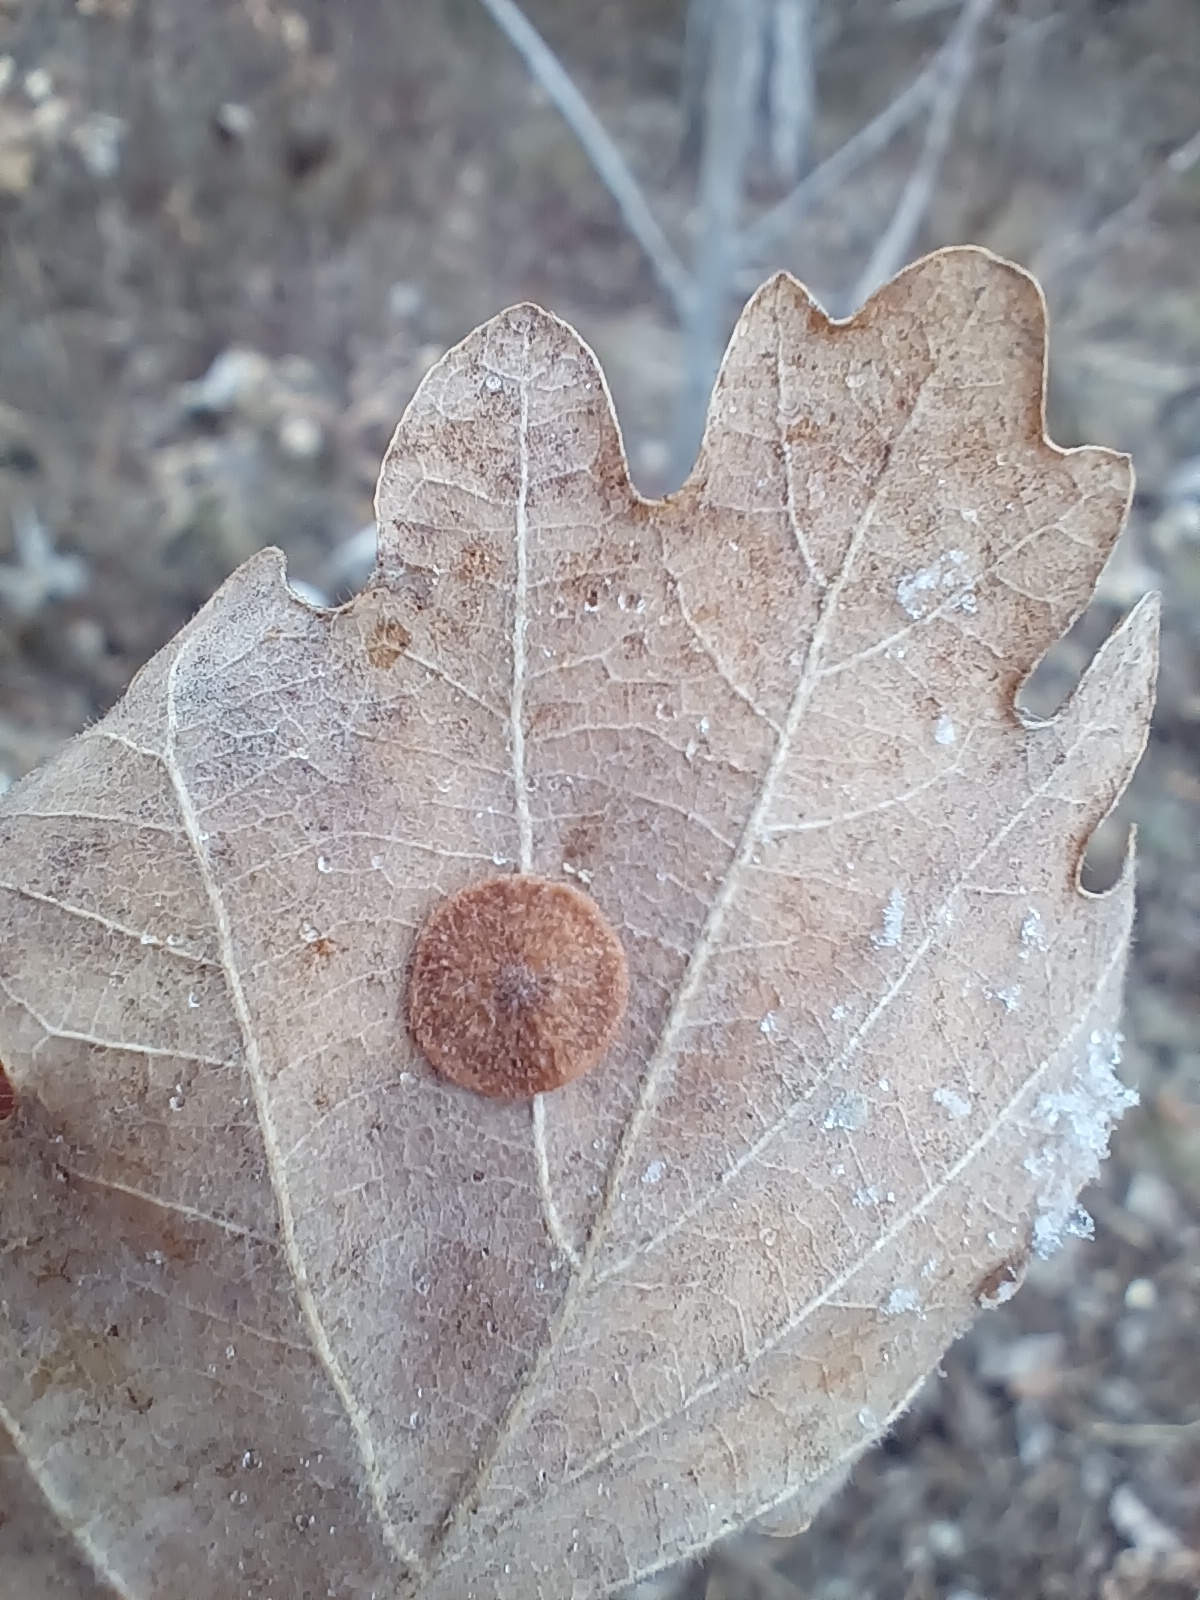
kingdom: Animalia
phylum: Arthropoda
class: Insecta
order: Hymenoptera
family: Cynipidae
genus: Neuroterus
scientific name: Neuroterus quercusbaccarum
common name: Common spangle gall
